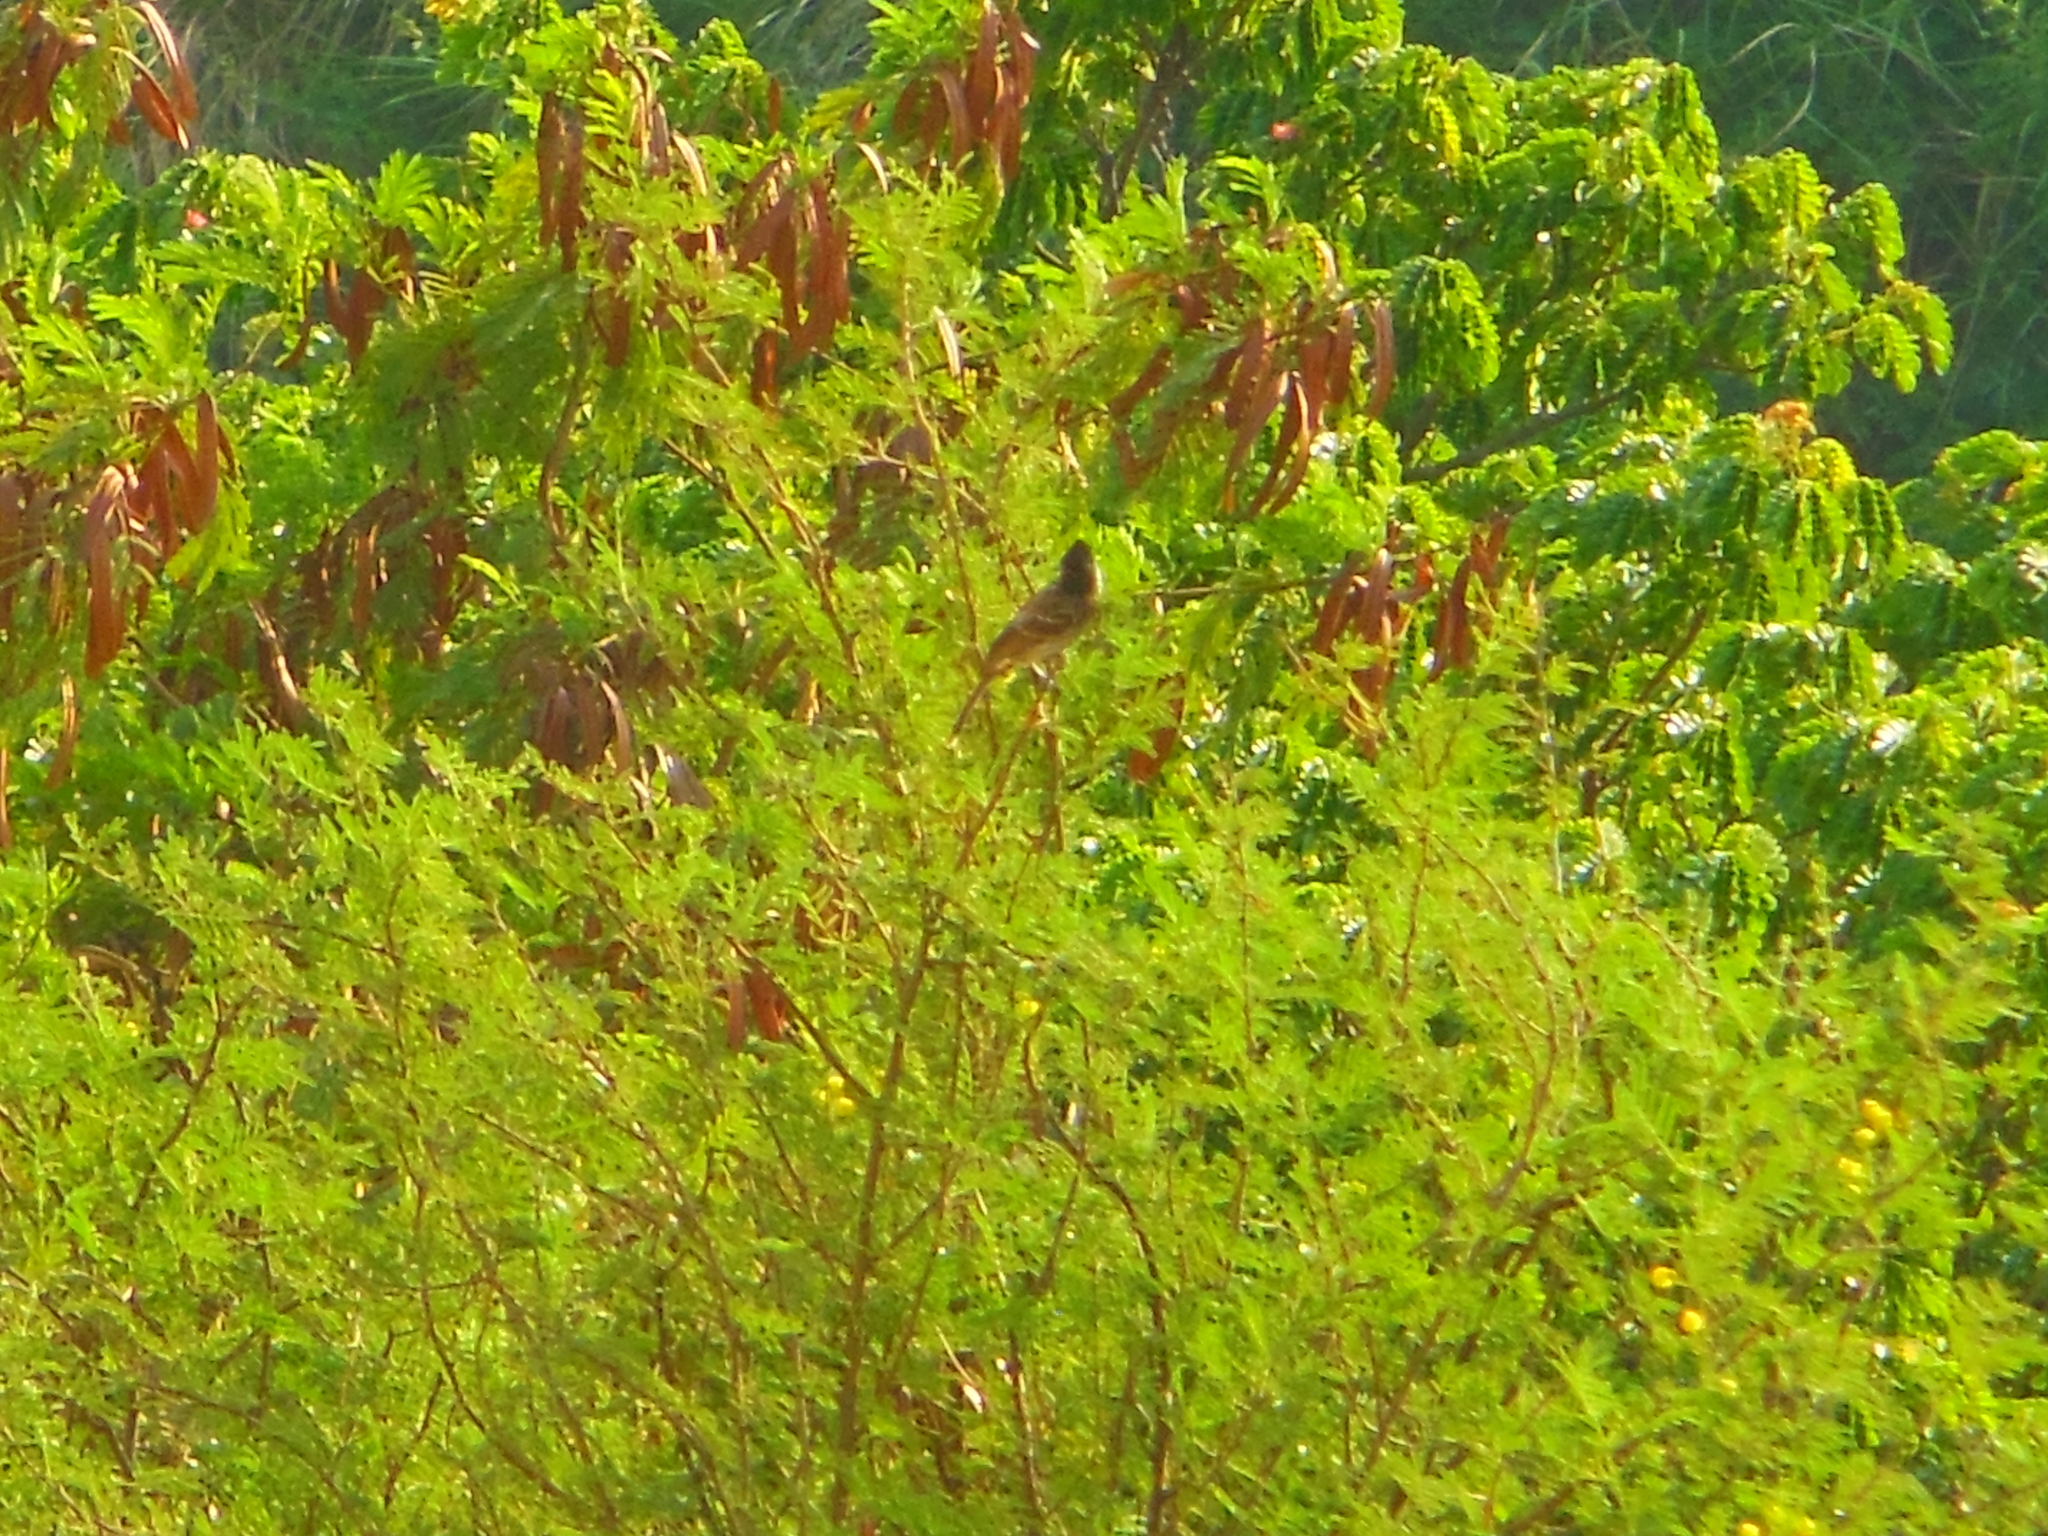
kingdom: Animalia
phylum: Chordata
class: Aves
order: Passeriformes
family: Pycnonotidae
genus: Pycnonotus
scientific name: Pycnonotus cafer
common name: Red-vented bulbul
